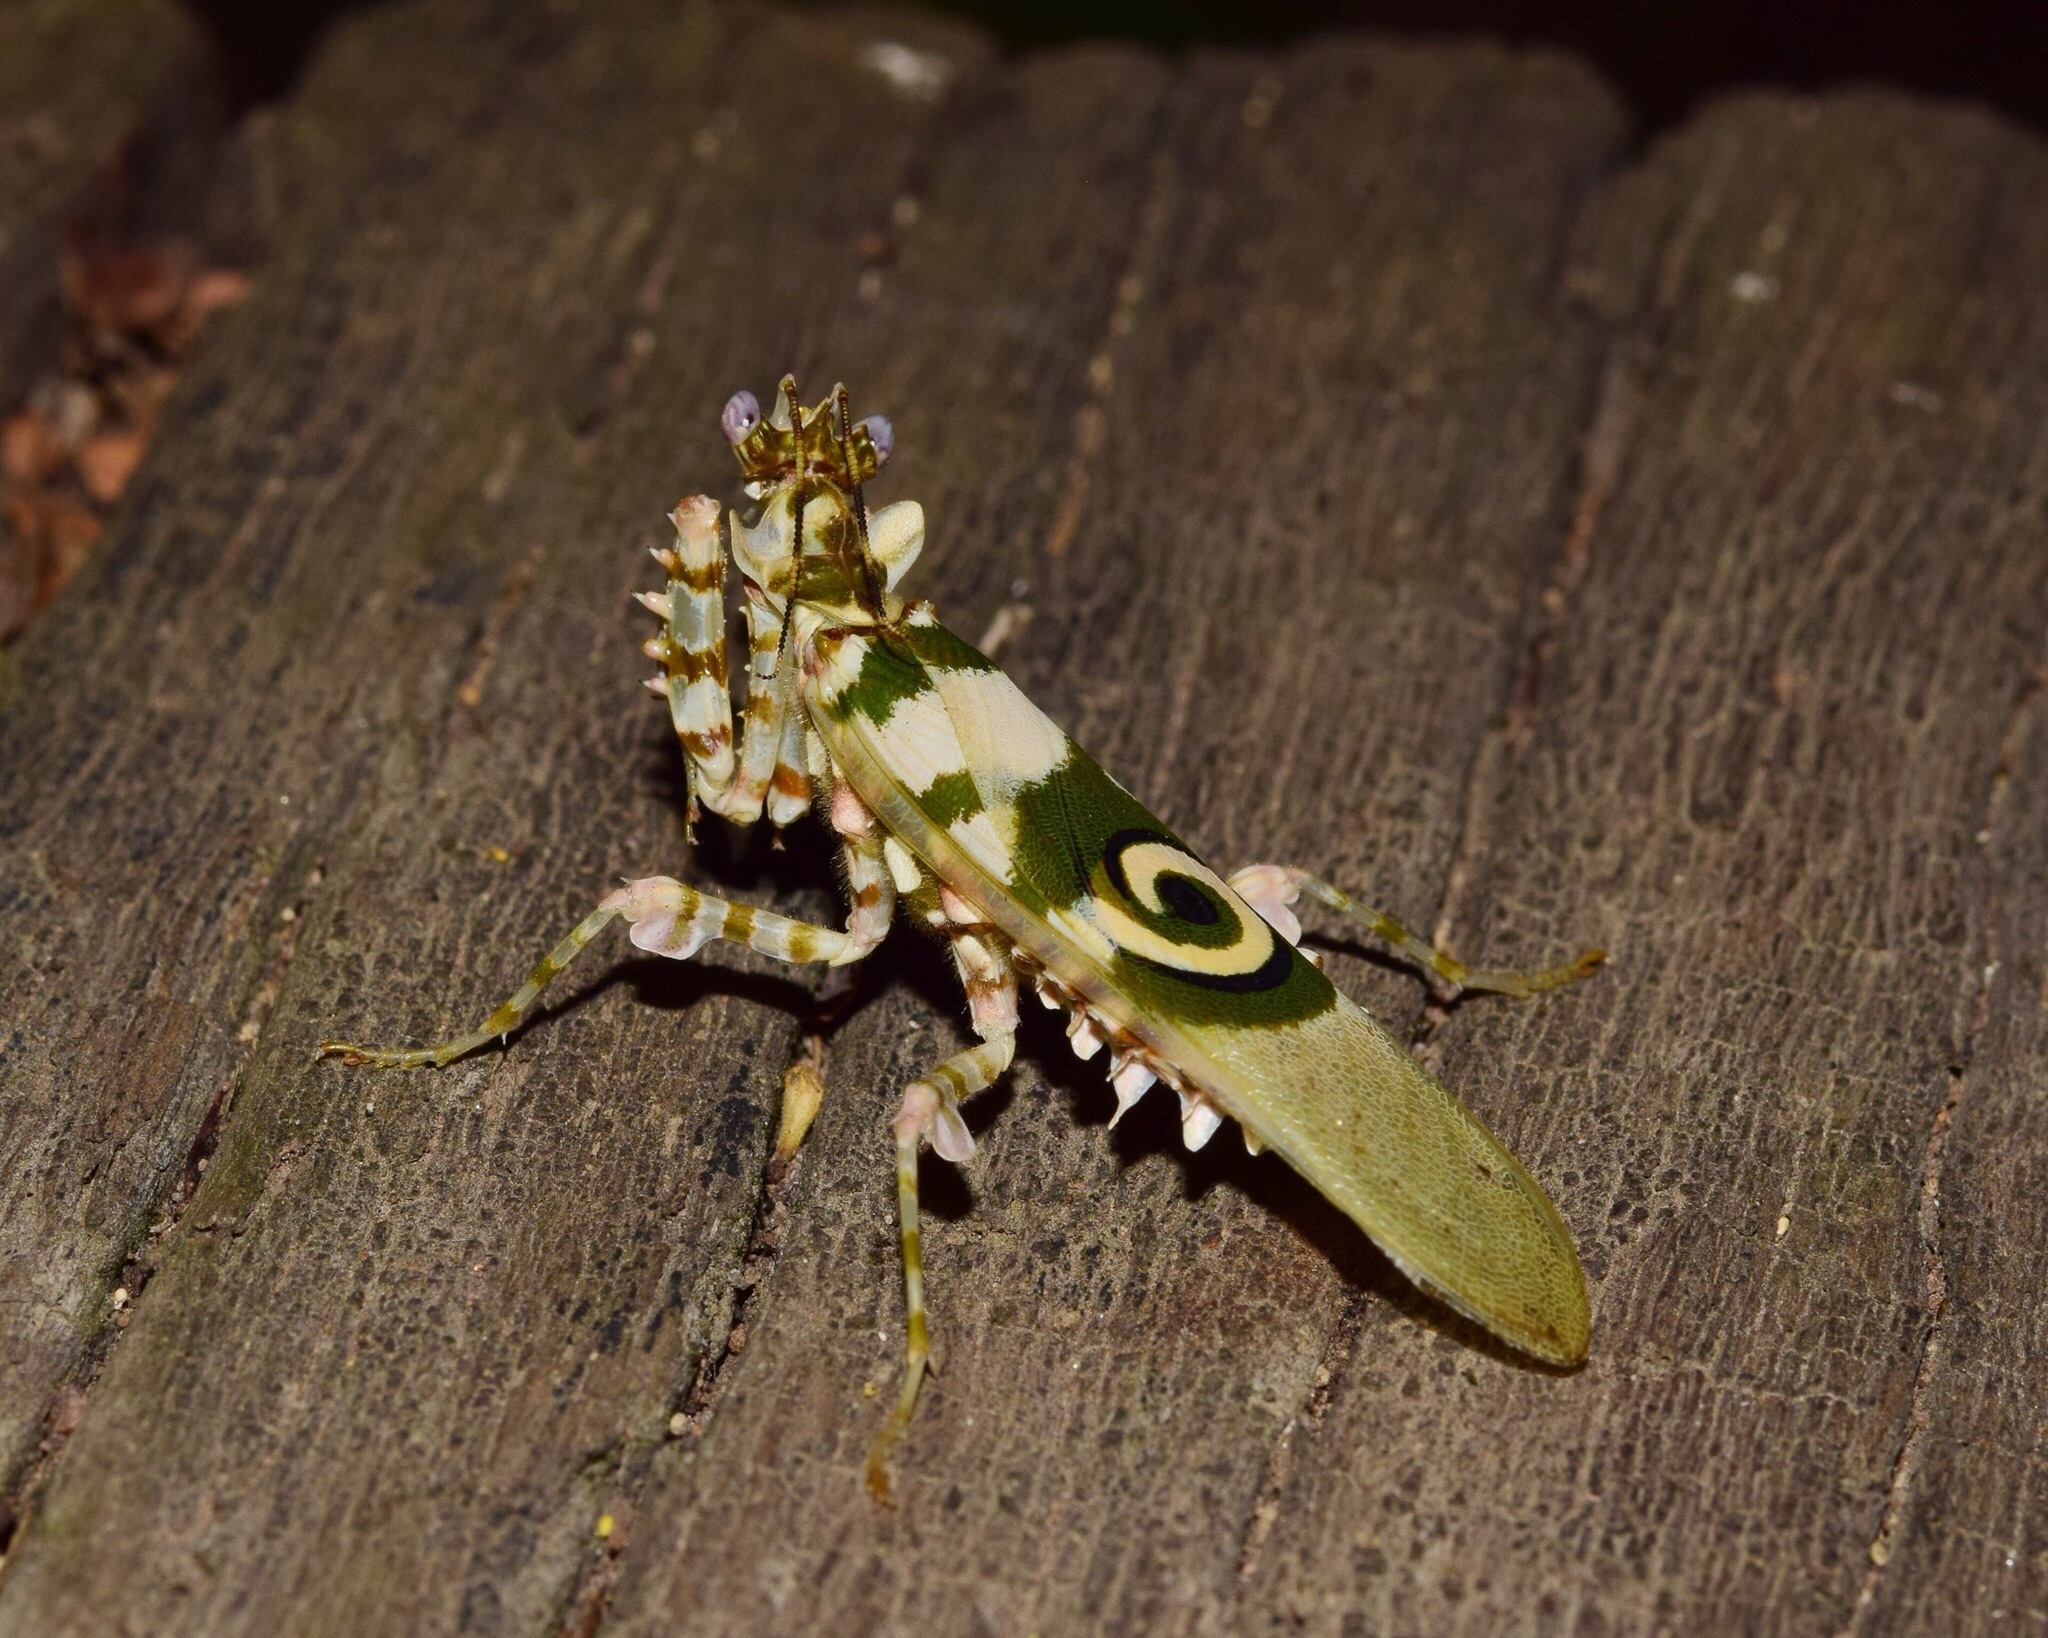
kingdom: Animalia
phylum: Arthropoda
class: Insecta
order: Mantodea
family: Hymenopodidae
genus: Pseudocreobotra
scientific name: Pseudocreobotra wahlbergi
